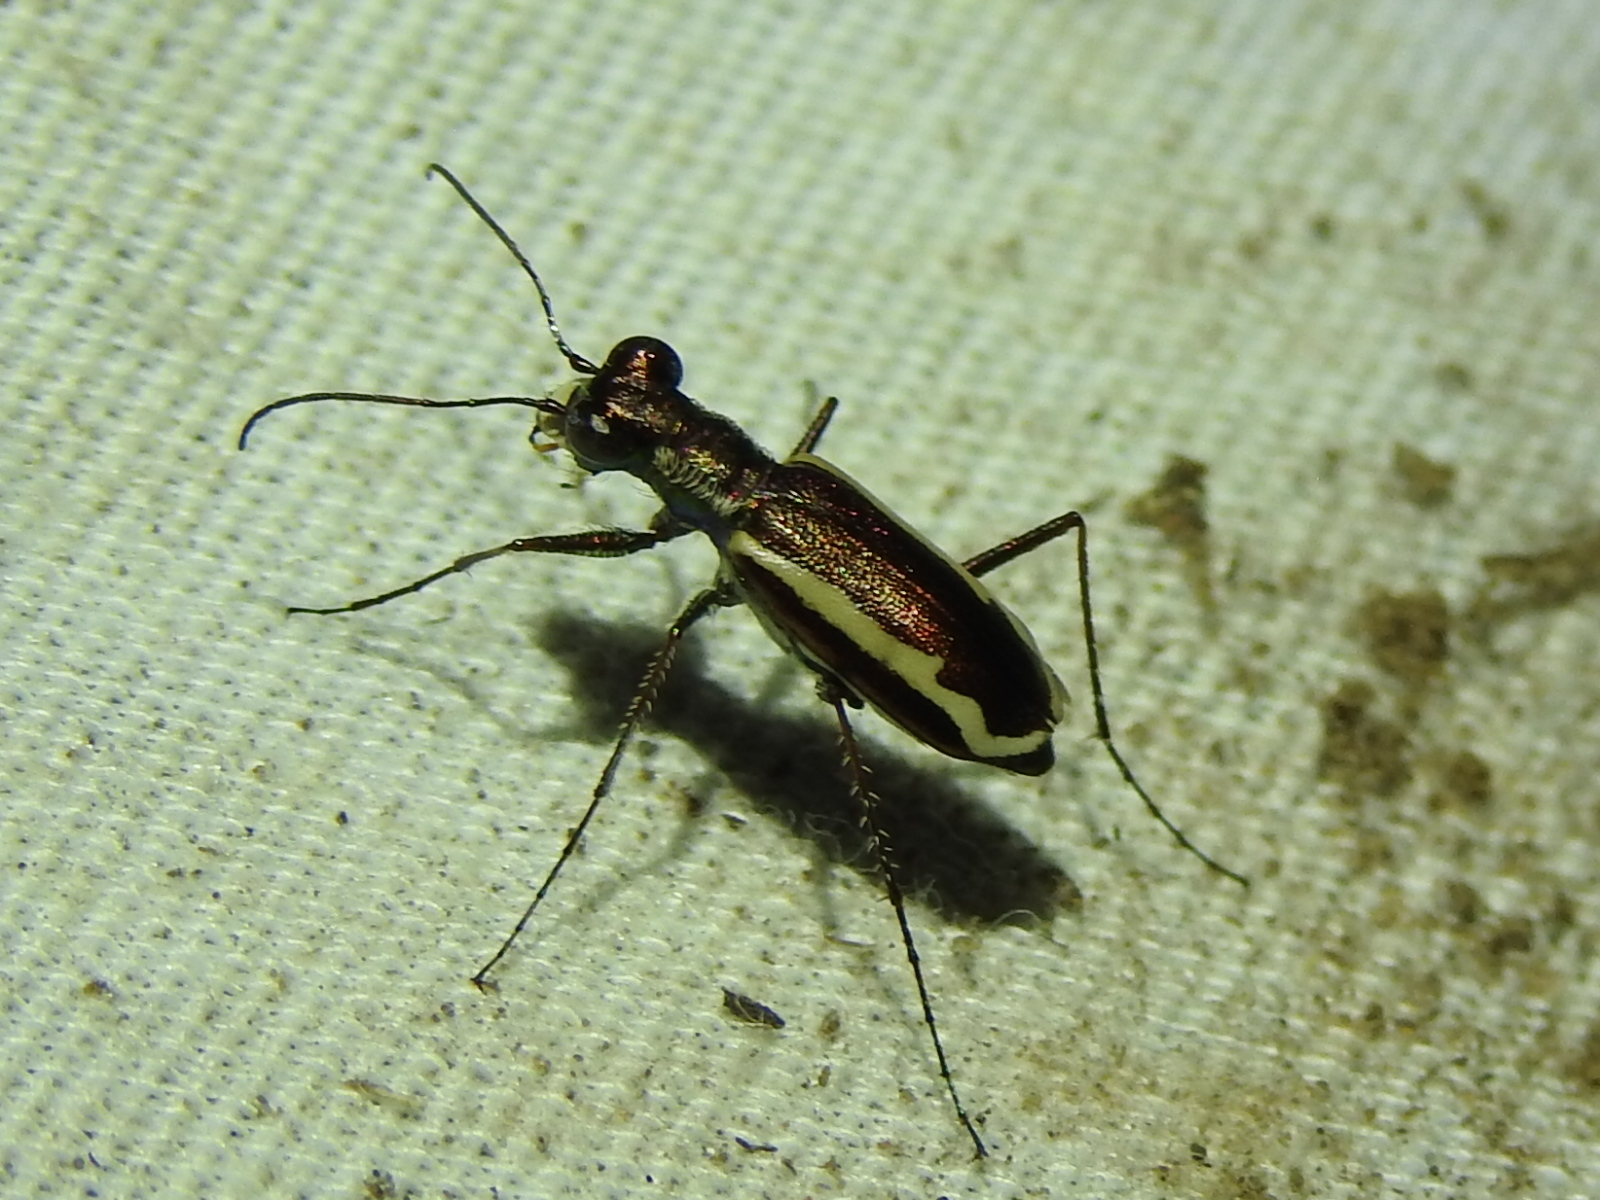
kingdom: Animalia
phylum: Arthropoda
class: Insecta
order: Coleoptera
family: Carabidae
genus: Cylindera
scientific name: Cylindera lemniscata
